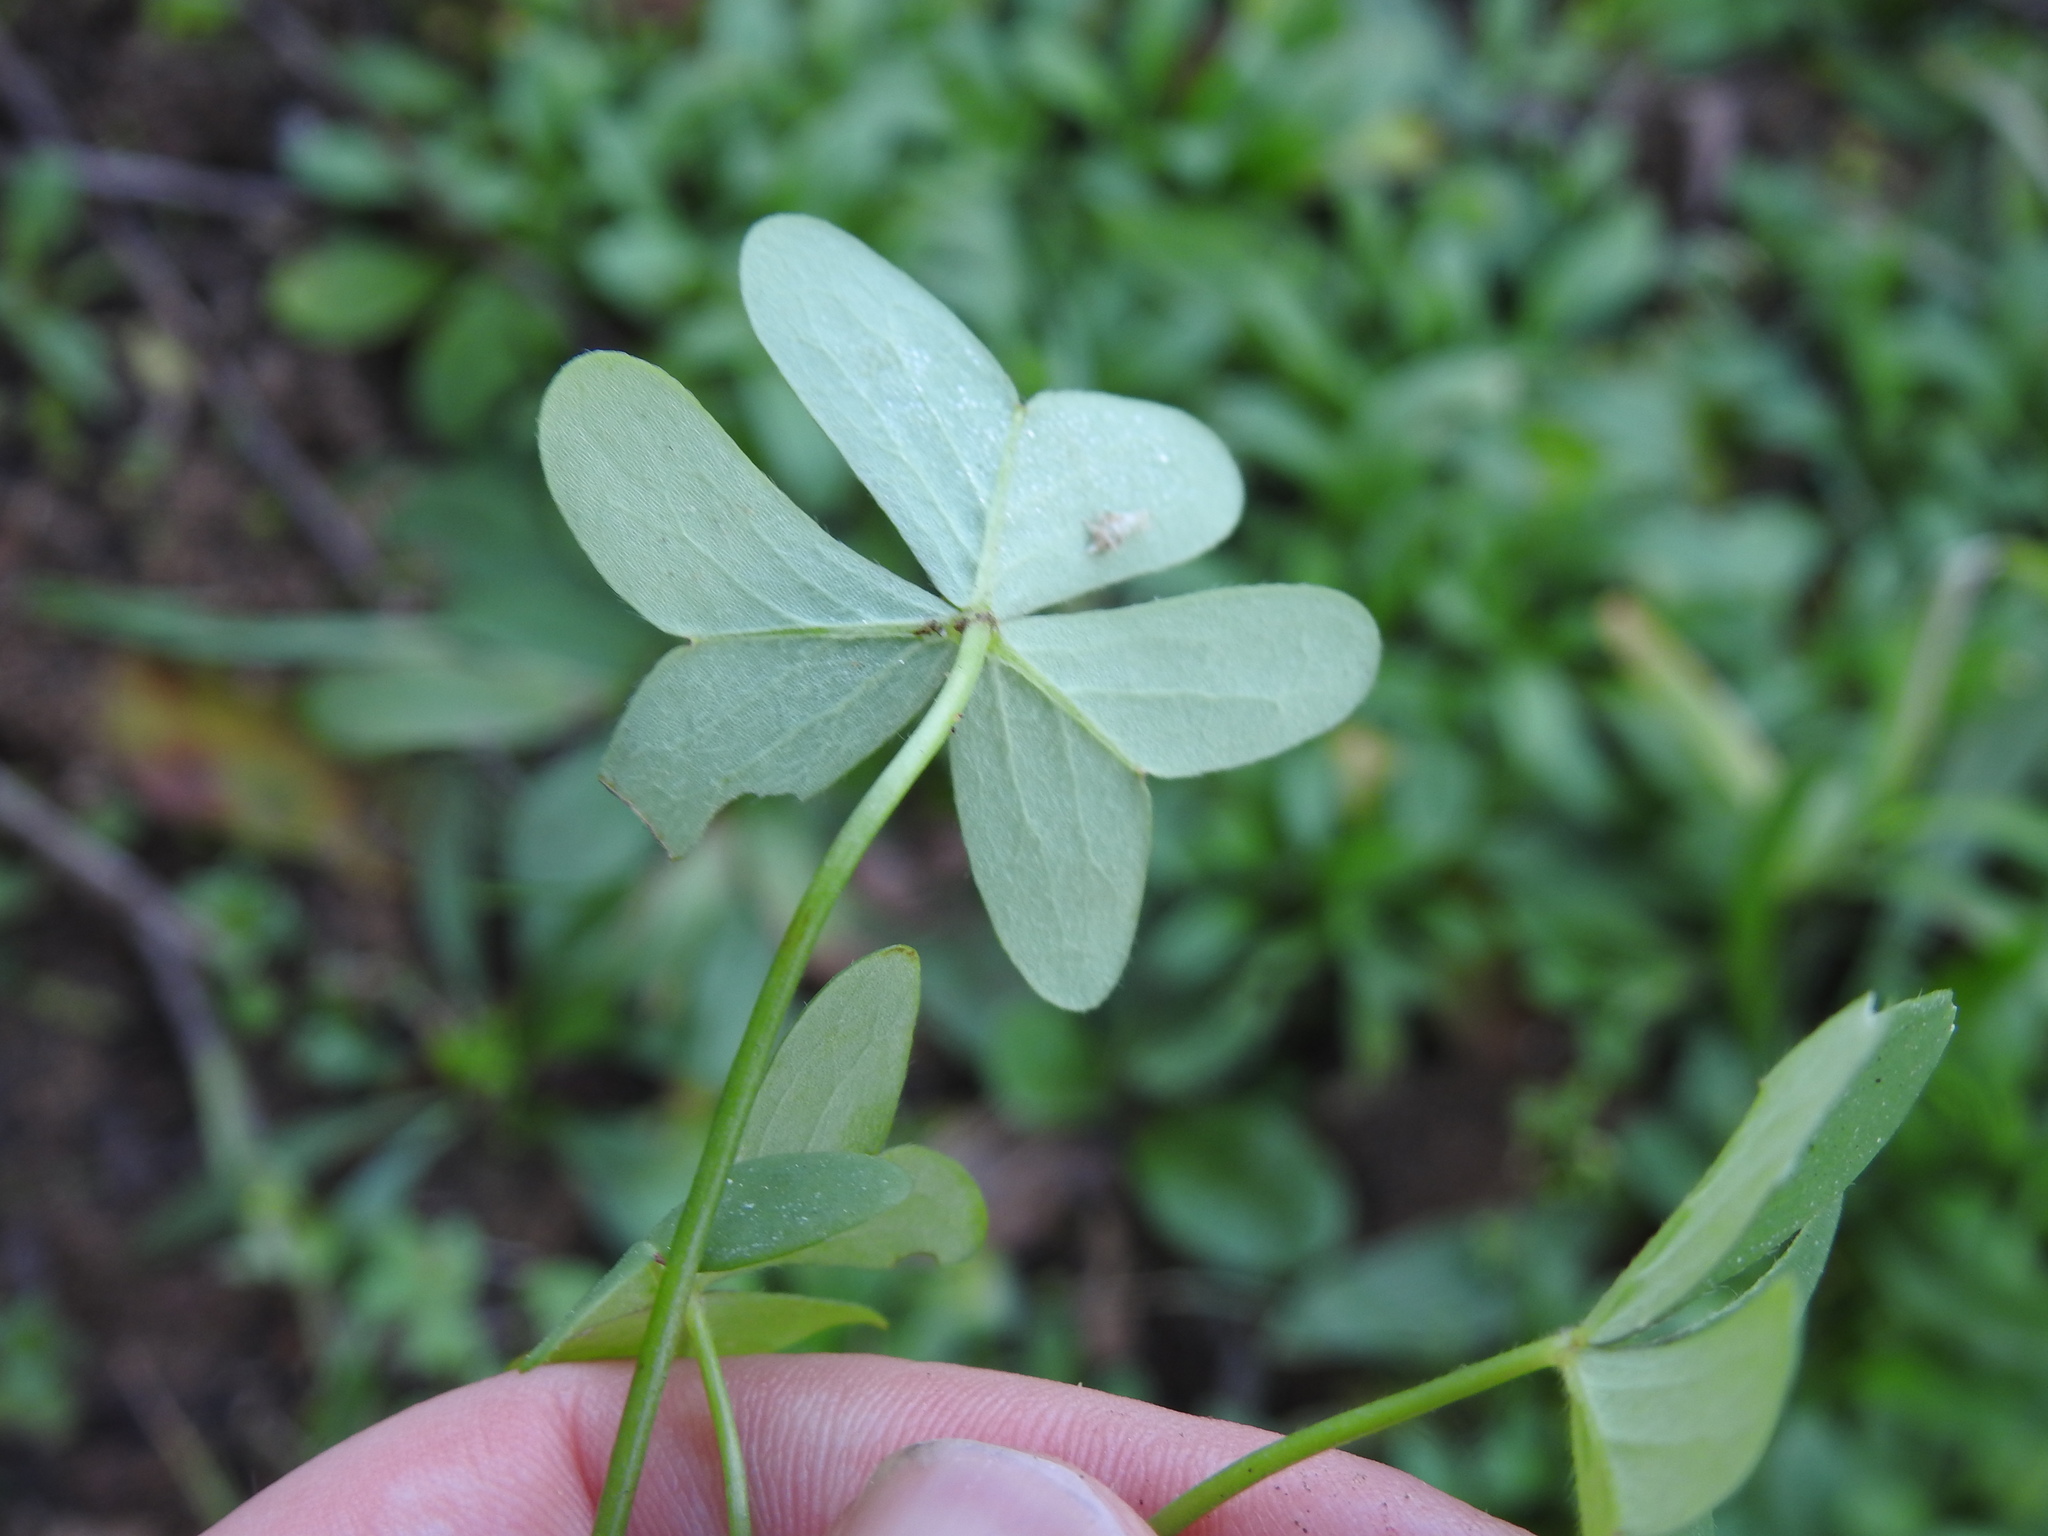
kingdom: Plantae
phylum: Tracheophyta
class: Magnoliopsida
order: Oxalidales
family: Oxalidaceae
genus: Oxalis
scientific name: Oxalis pes-caprae
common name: Bermuda-buttercup
